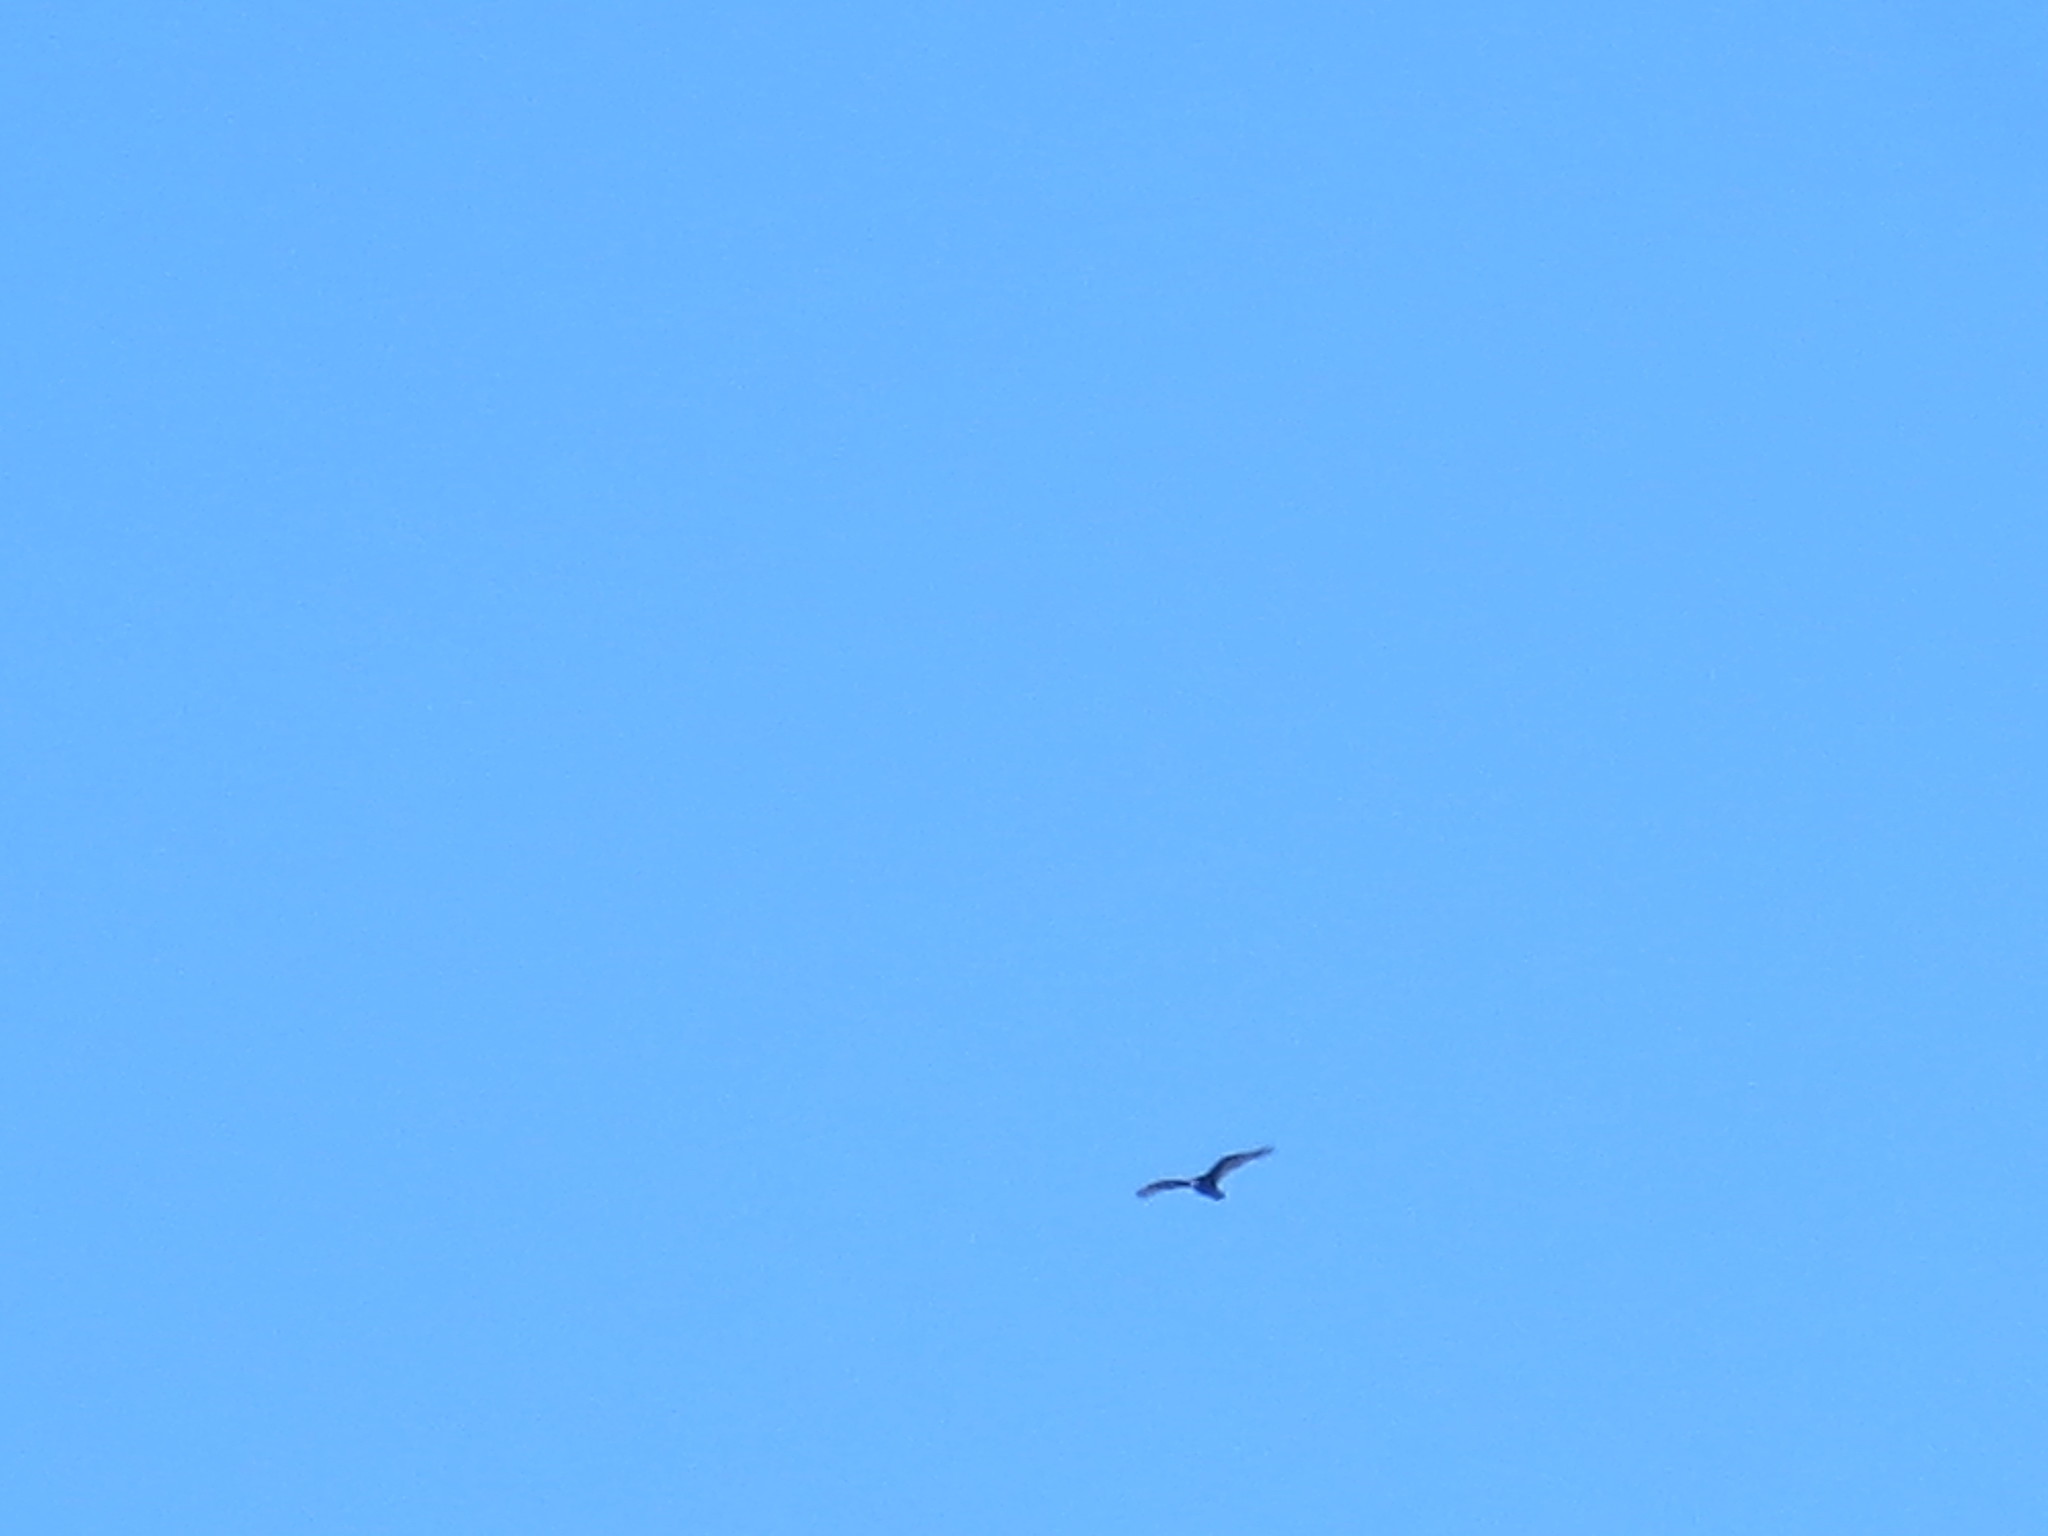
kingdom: Animalia
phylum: Chordata
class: Aves
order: Accipitriformes
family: Cathartidae
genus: Cathartes
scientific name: Cathartes aura
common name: Turkey vulture
